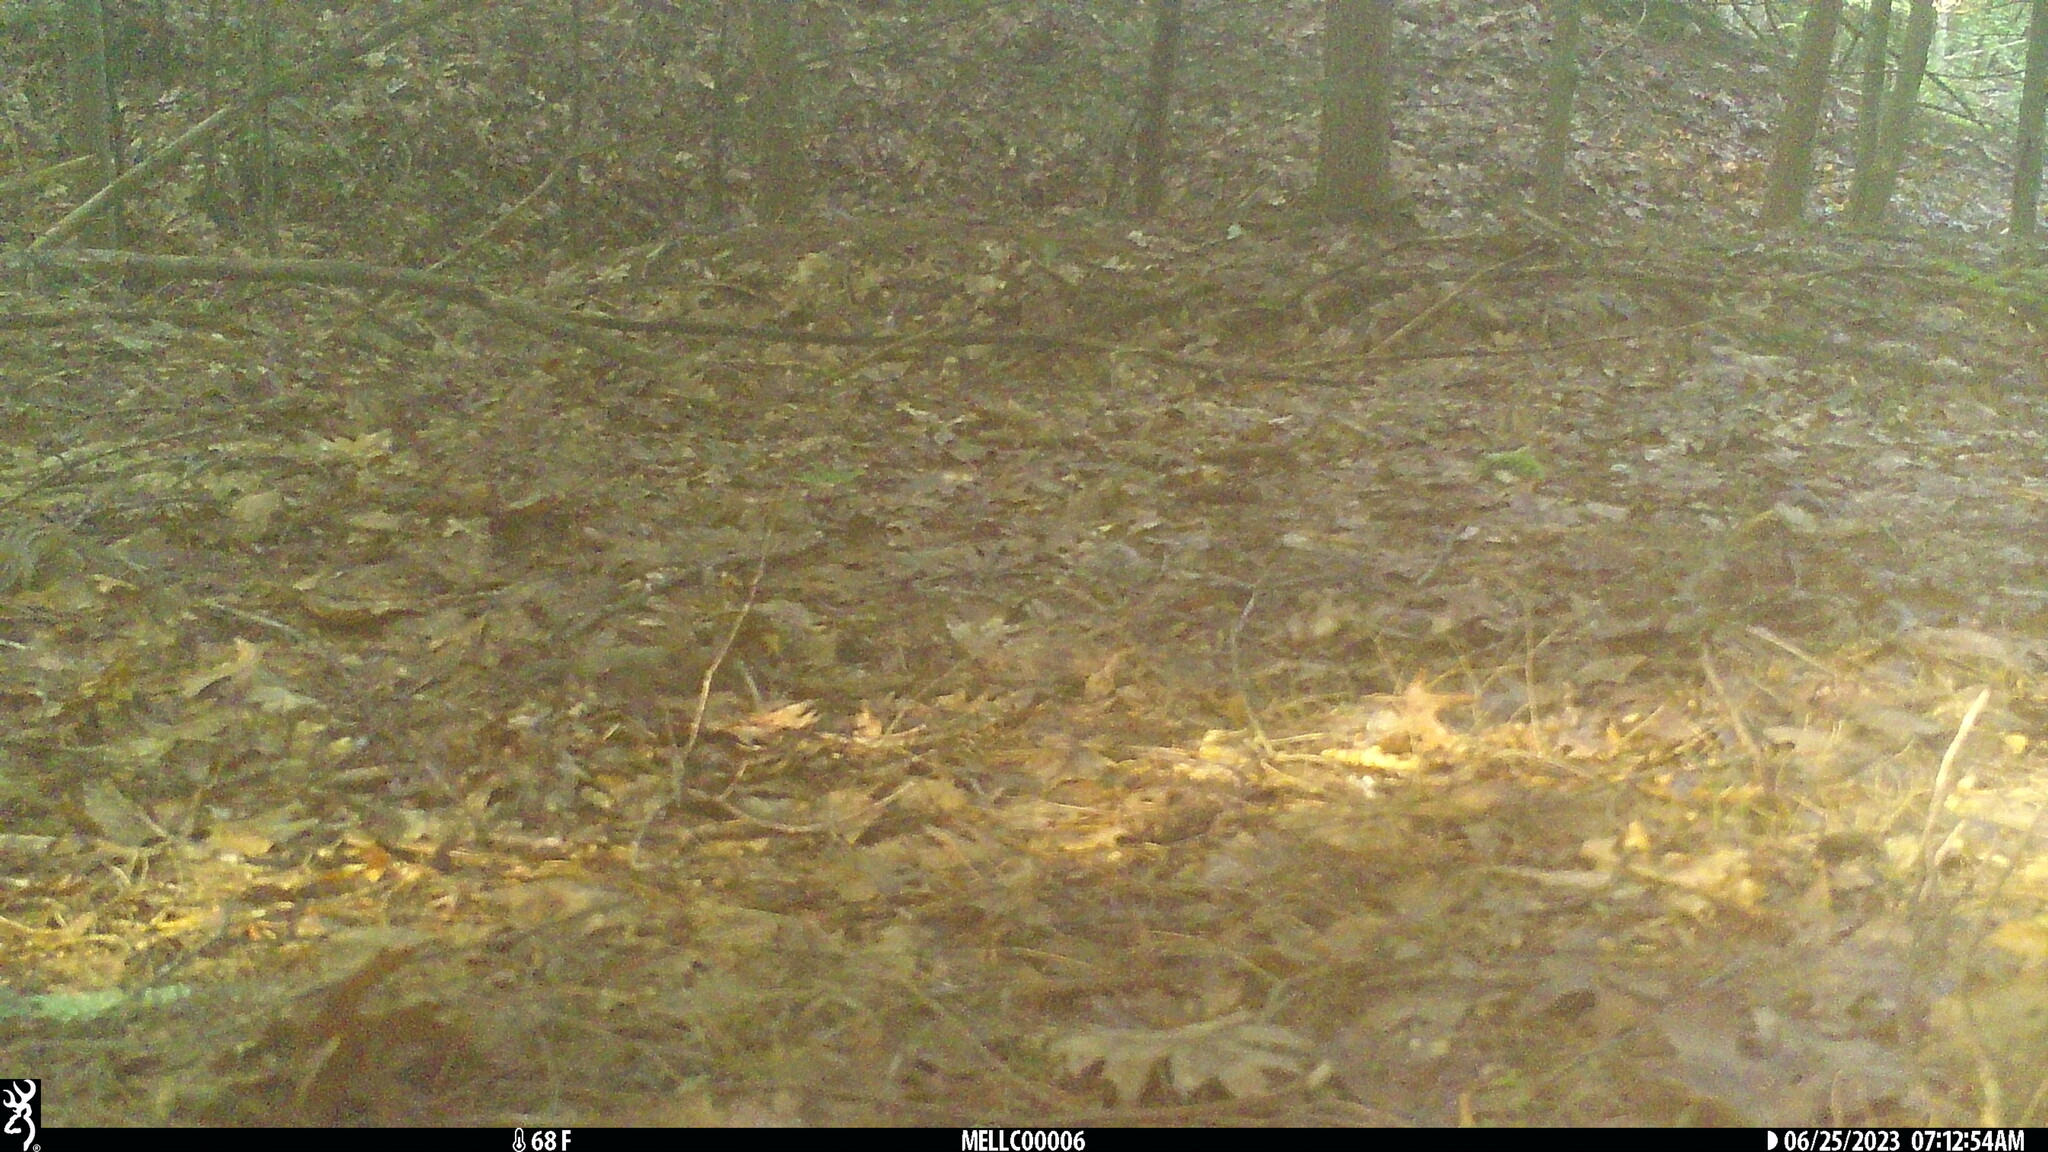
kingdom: Animalia
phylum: Chordata
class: Mammalia
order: Rodentia
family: Sciuridae
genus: Tamias
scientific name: Tamias striatus
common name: Eastern chipmunk
